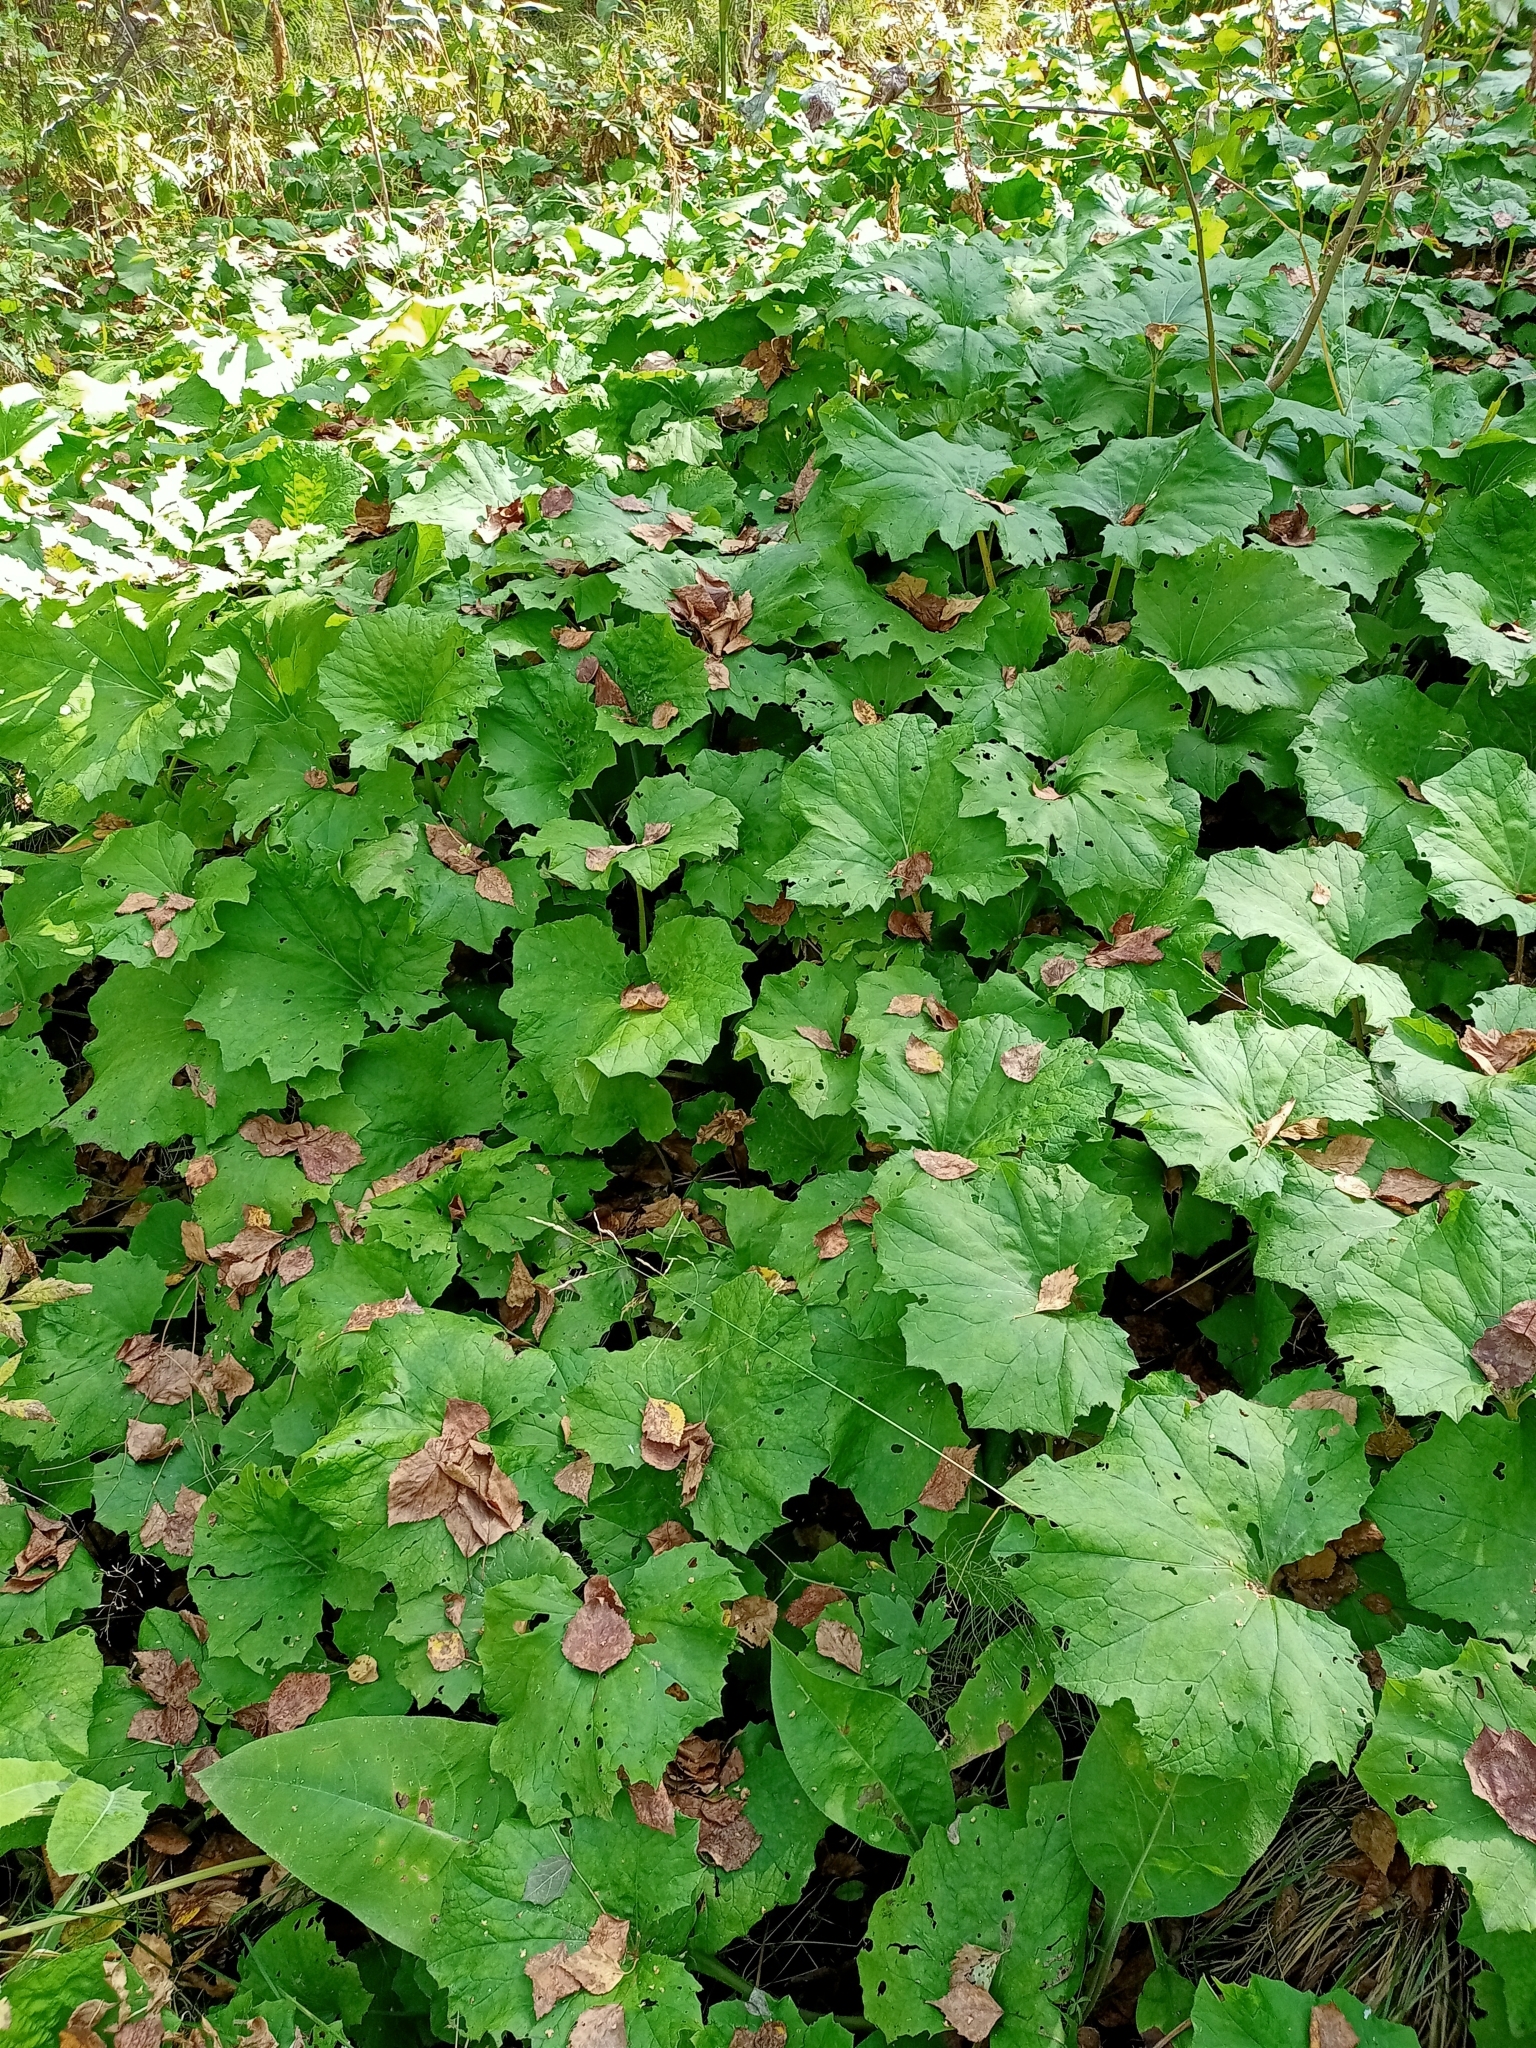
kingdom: Plantae
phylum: Tracheophyta
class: Magnoliopsida
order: Asterales
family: Asteraceae
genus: Tussilago
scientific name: Tussilago farfara
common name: Coltsfoot
